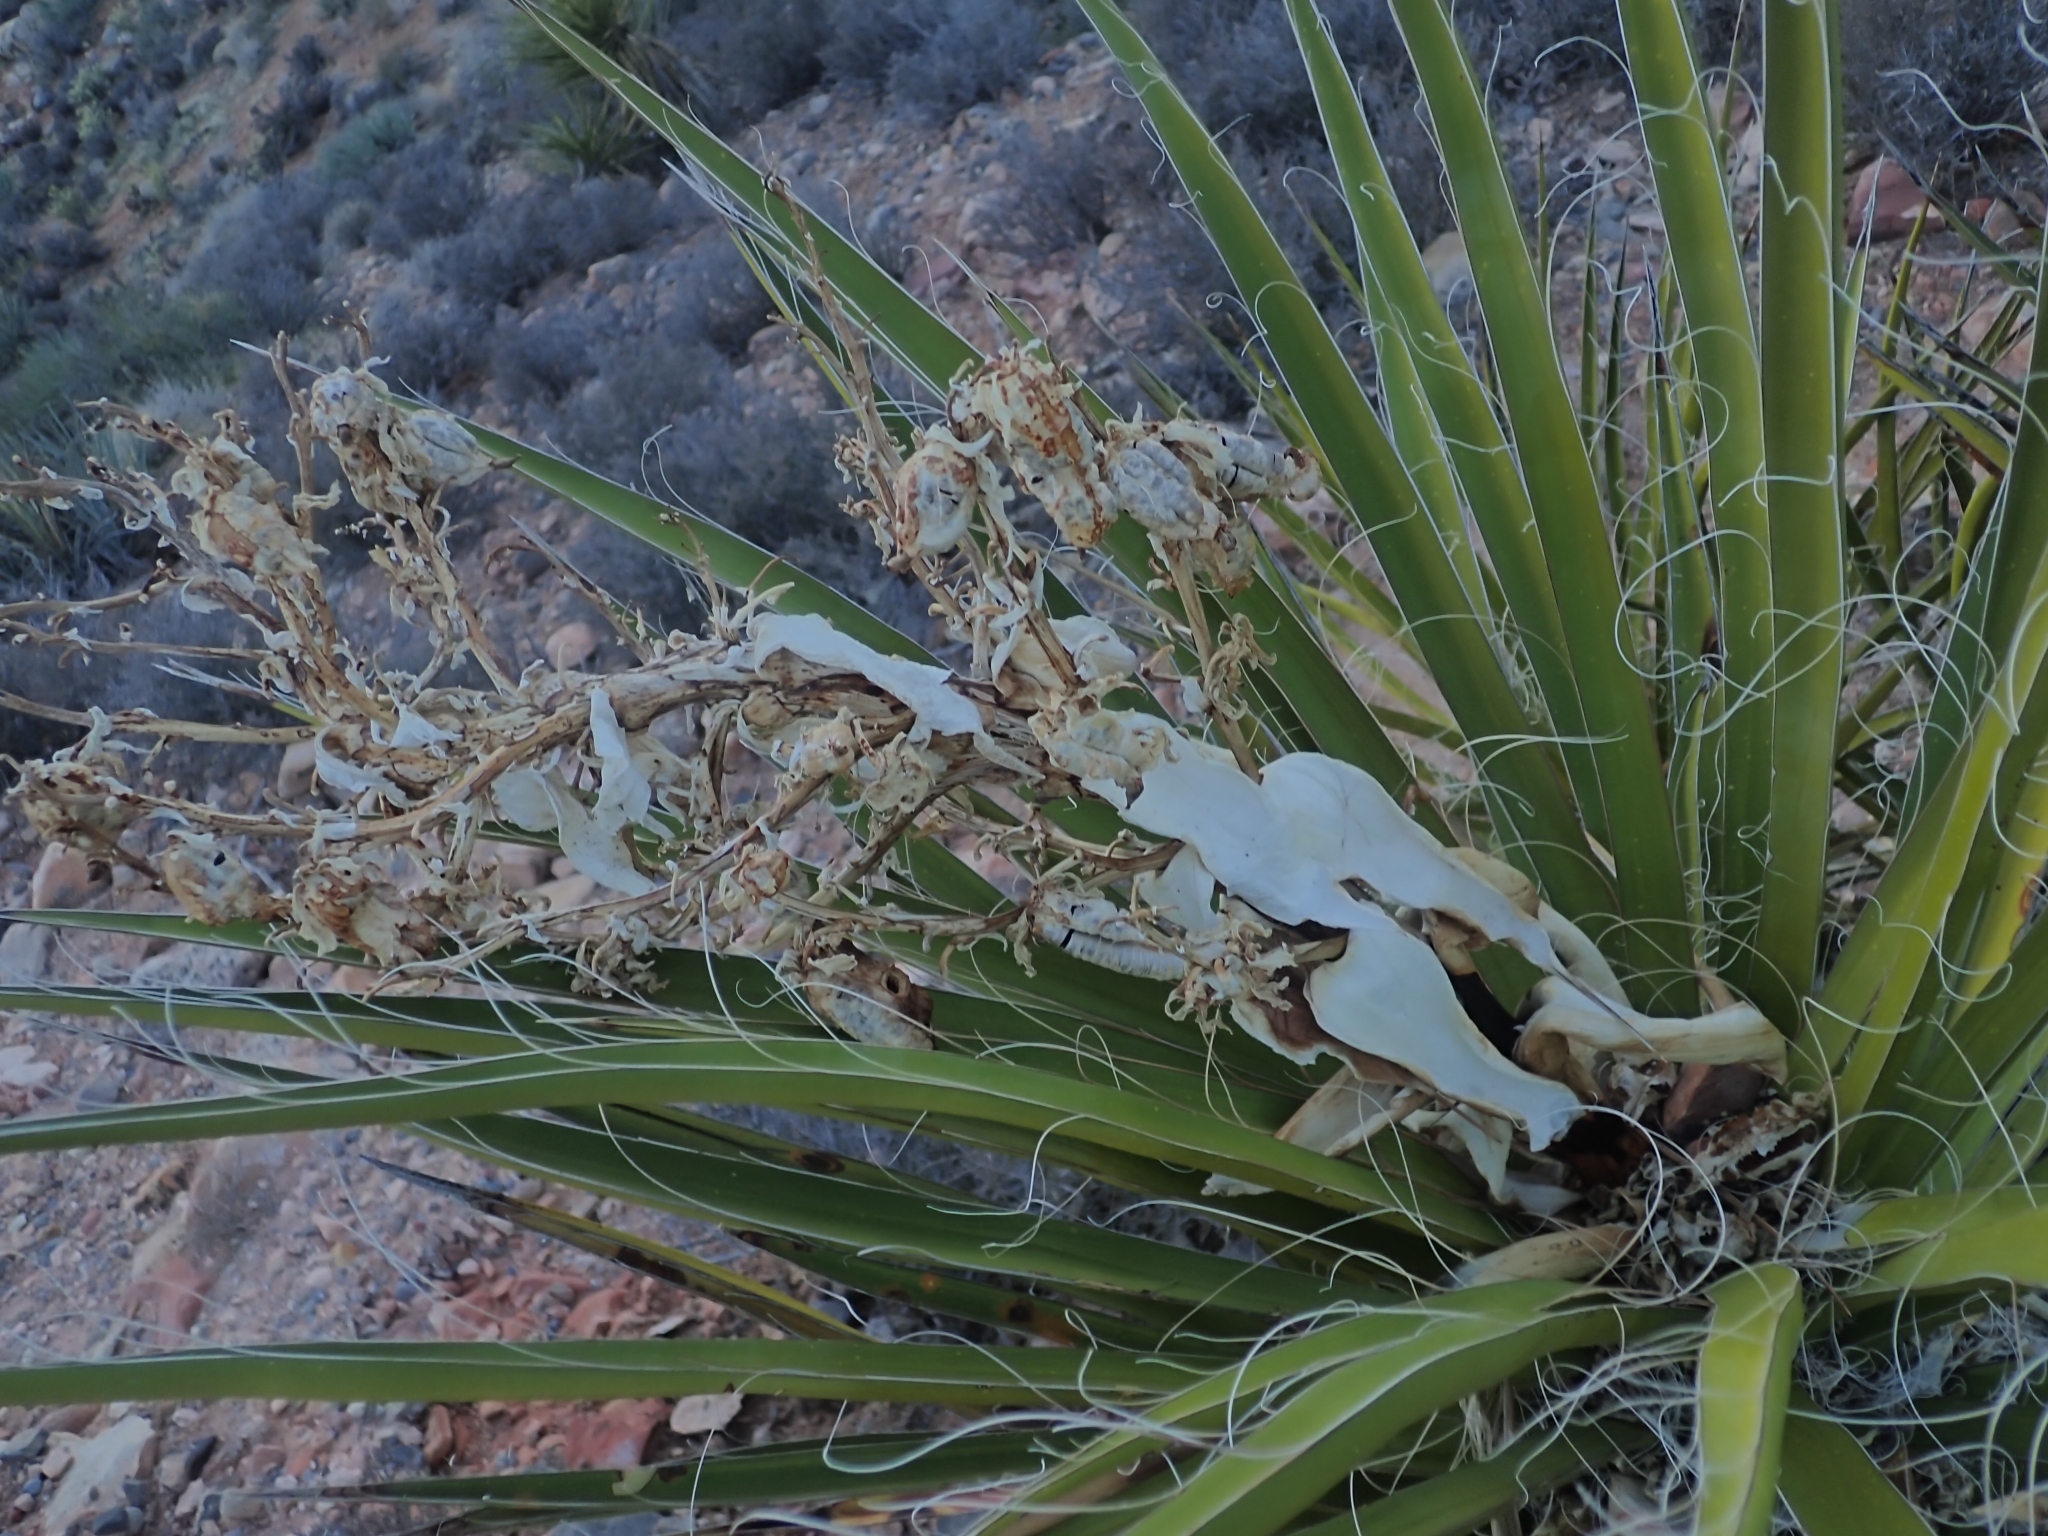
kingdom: Plantae
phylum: Tracheophyta
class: Liliopsida
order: Asparagales
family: Asparagaceae
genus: Yucca
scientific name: Yucca schidigera
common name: Mojave yucca
